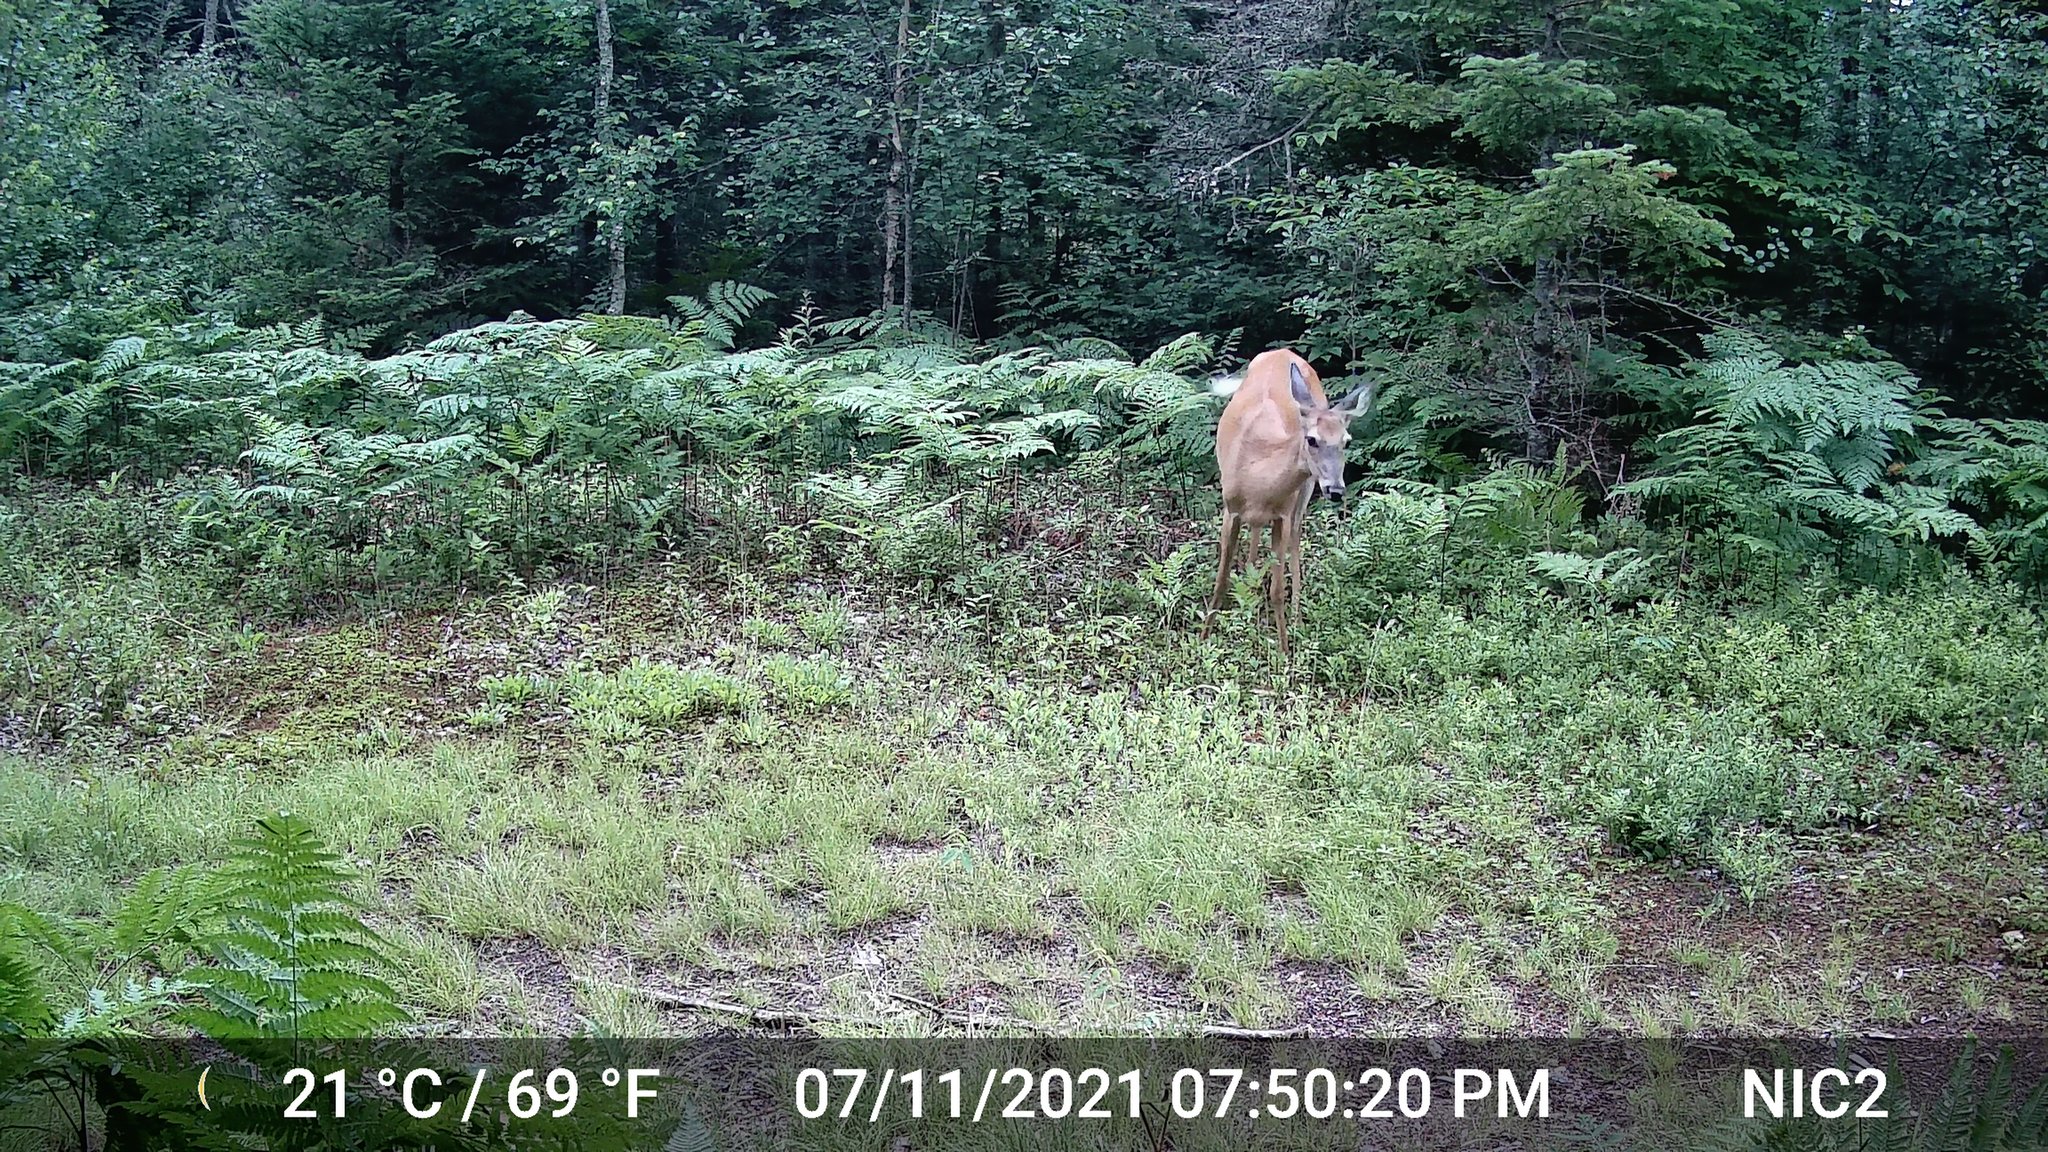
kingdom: Animalia
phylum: Chordata
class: Mammalia
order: Artiodactyla
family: Cervidae
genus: Odocoileus
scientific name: Odocoileus virginianus
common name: White-tailed deer
